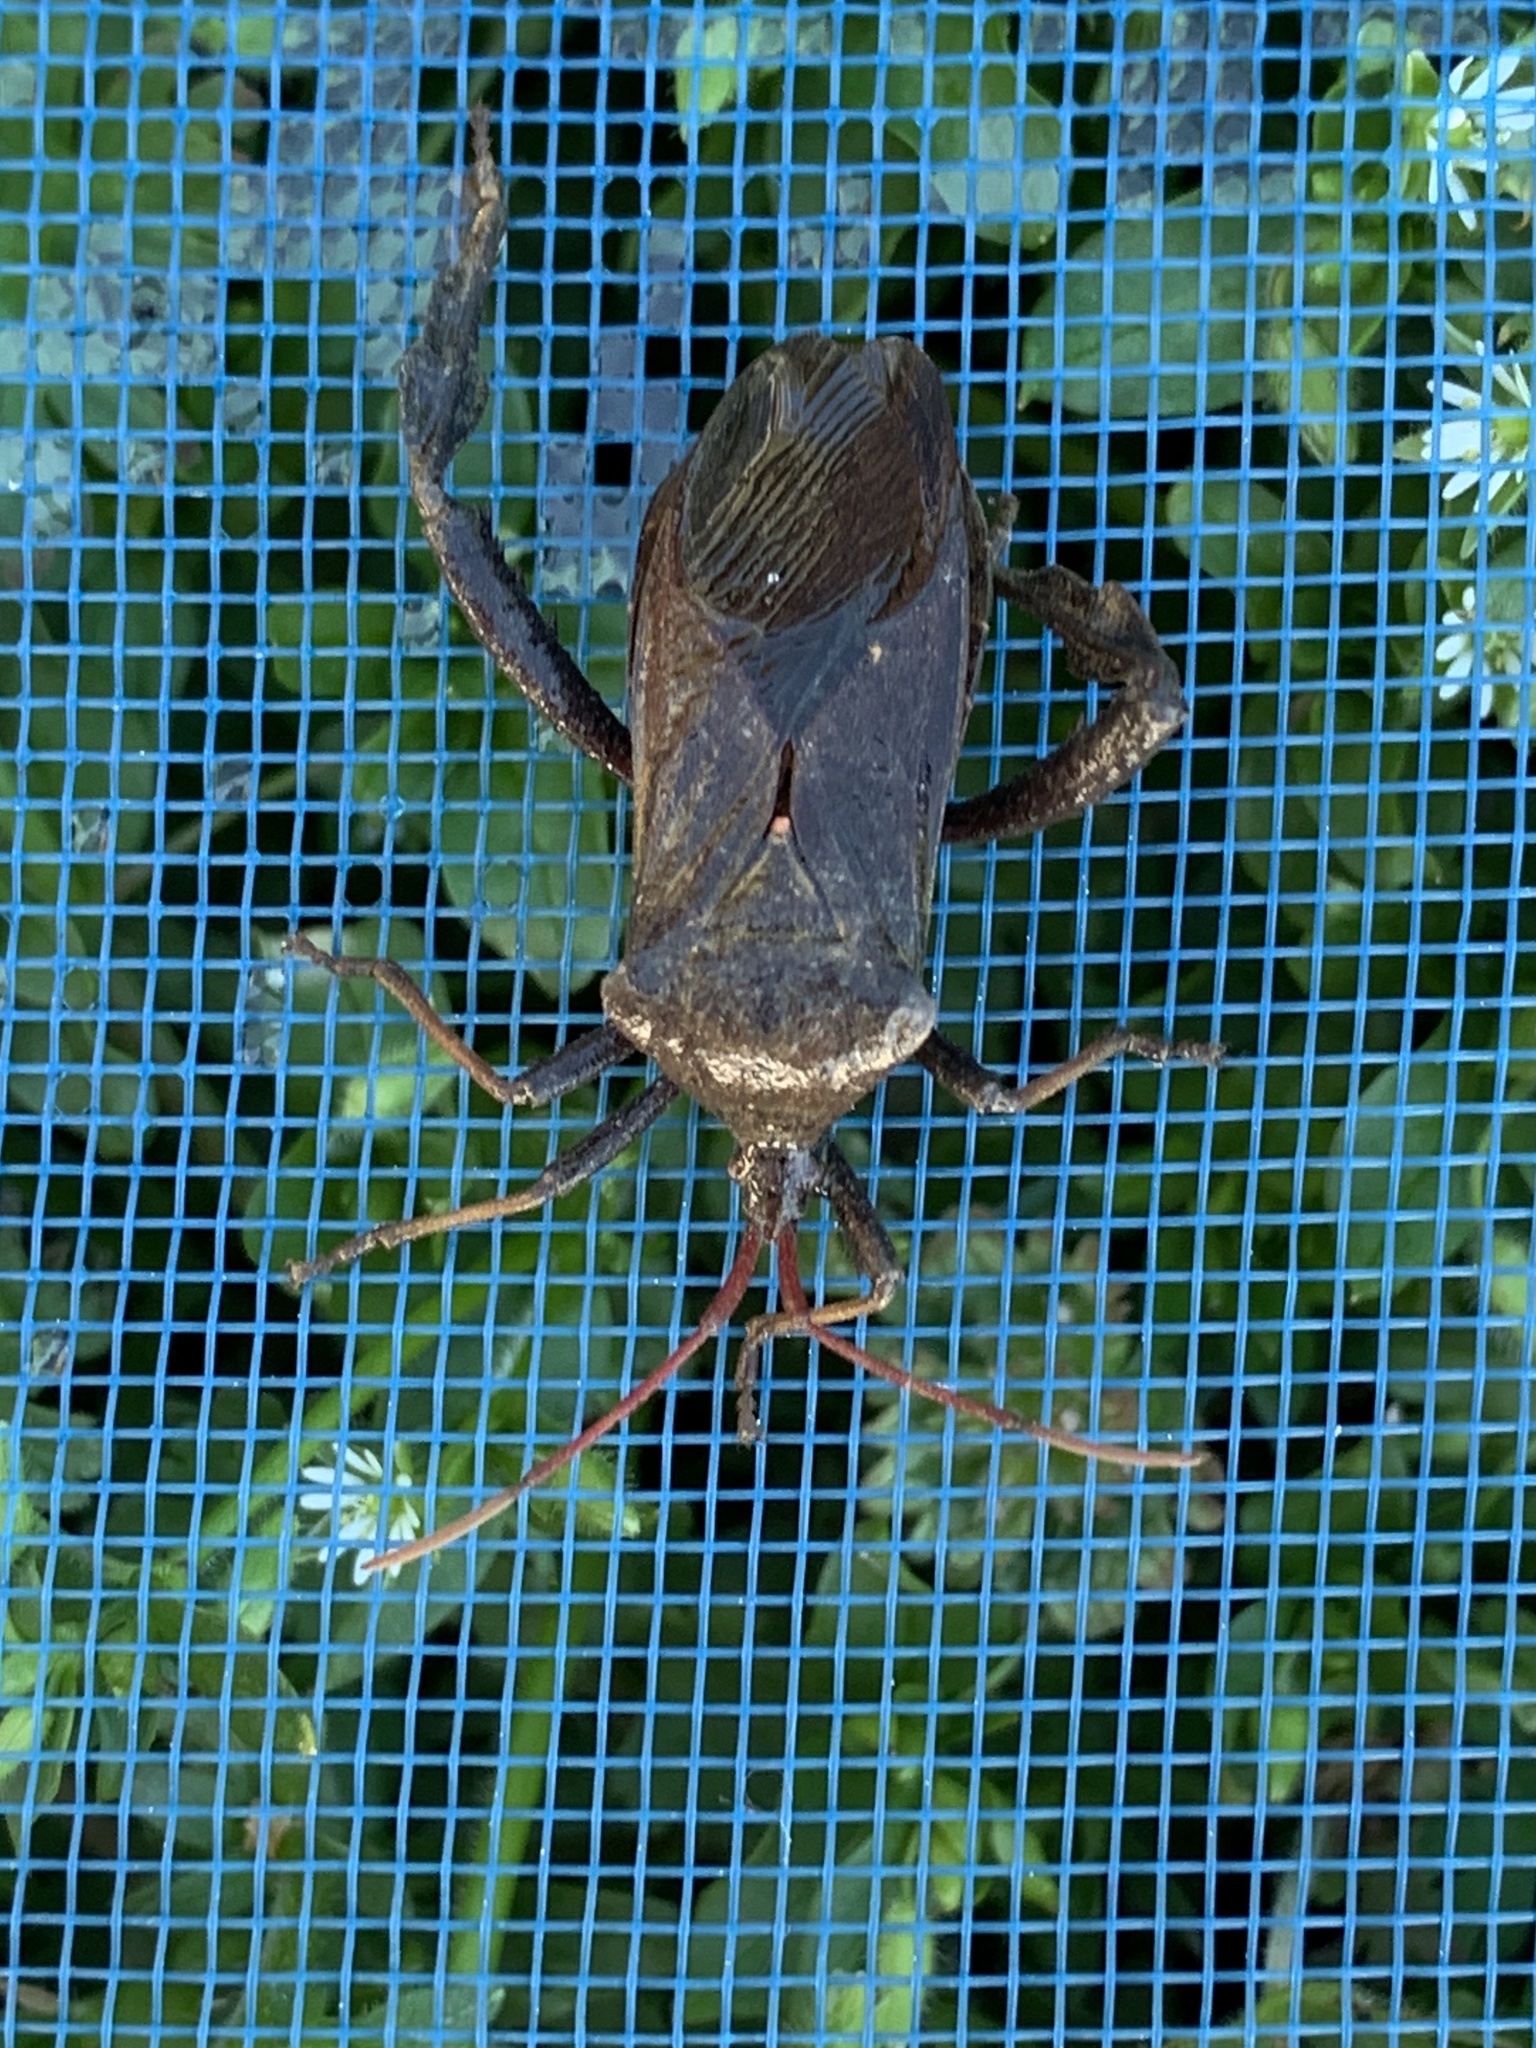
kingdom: Animalia
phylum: Arthropoda
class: Insecta
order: Hemiptera
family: Coreidae
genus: Acanthocephala
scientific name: Acanthocephala femorata
